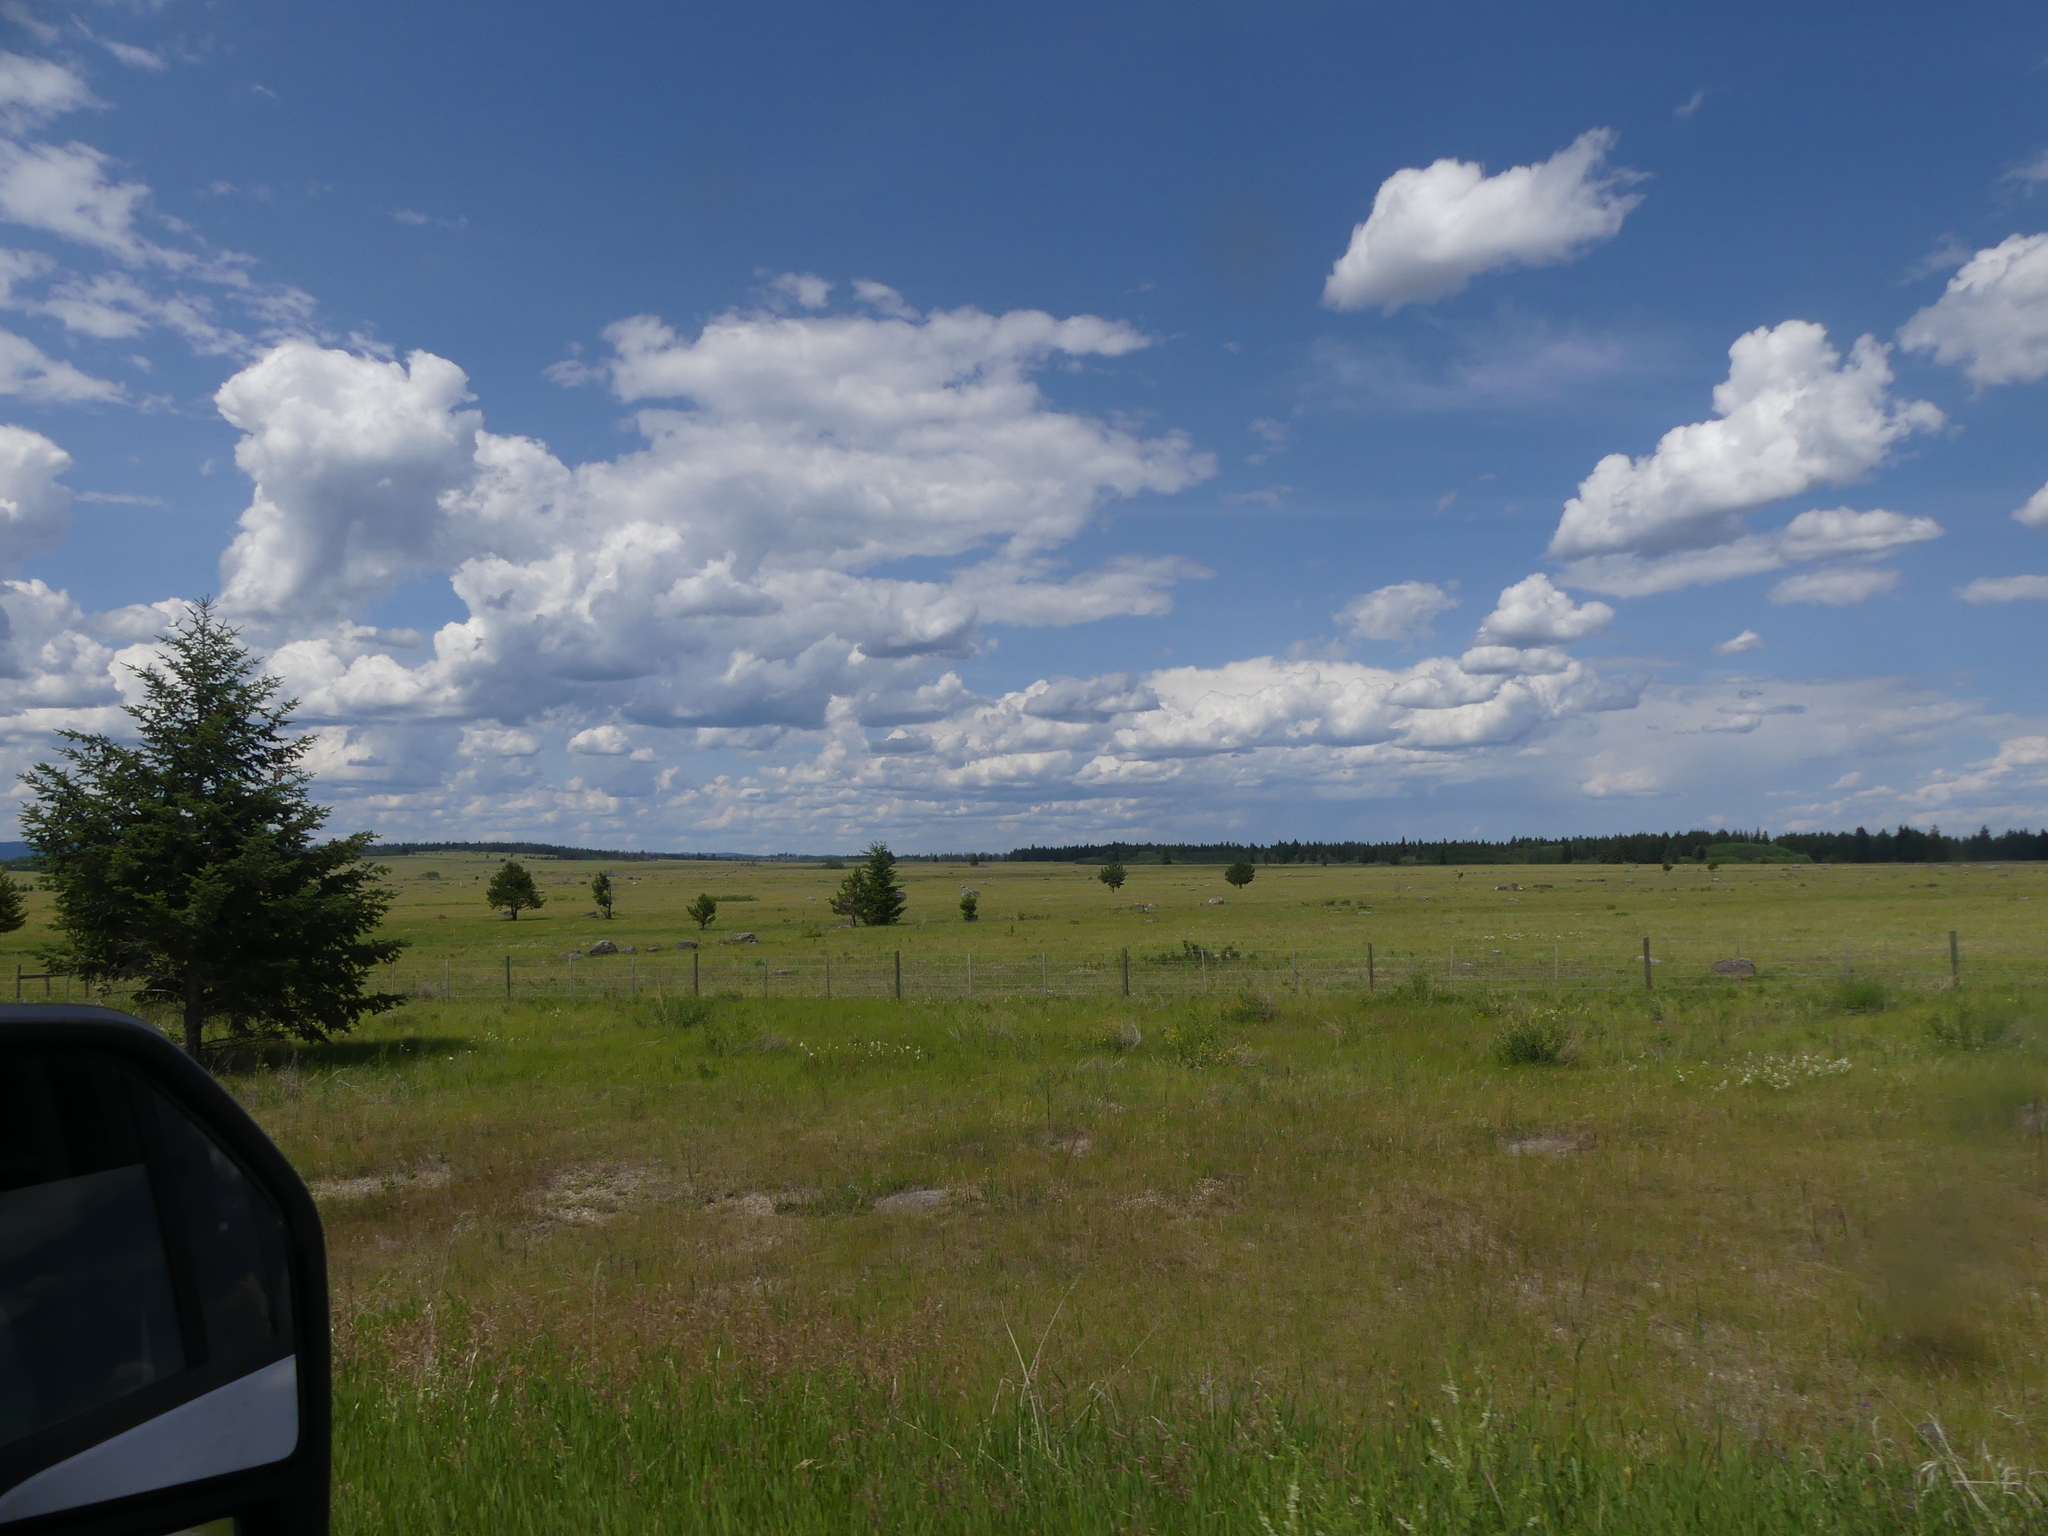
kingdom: Plantae
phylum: Tracheophyta
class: Pinopsida
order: Pinales
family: Pinaceae
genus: Pseudotsuga
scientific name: Pseudotsuga menziesii
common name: Douglas fir
